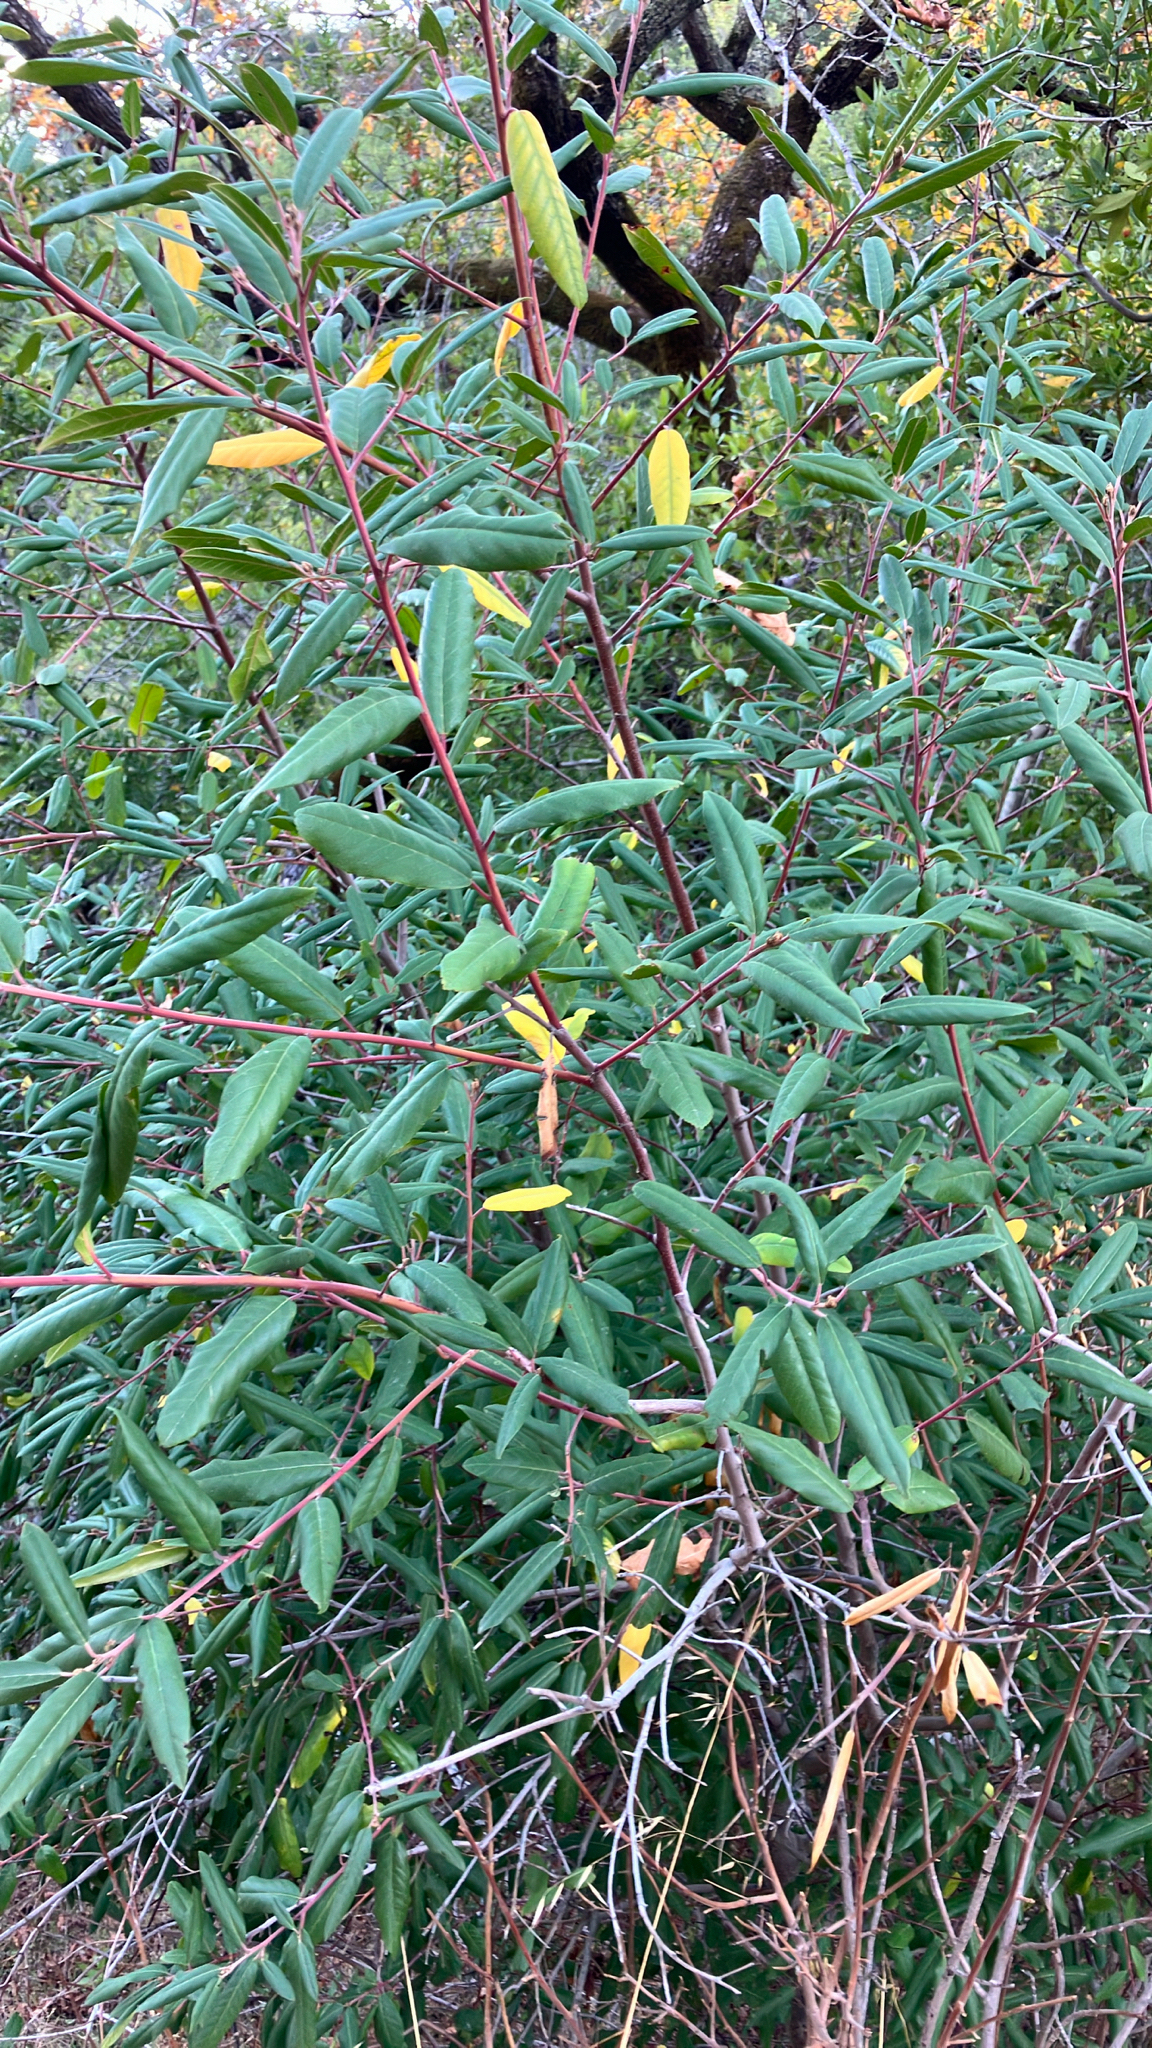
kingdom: Plantae
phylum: Tracheophyta
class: Magnoliopsida
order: Rosales
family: Rhamnaceae
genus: Frangula
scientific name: Frangula californica
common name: California buckthorn
